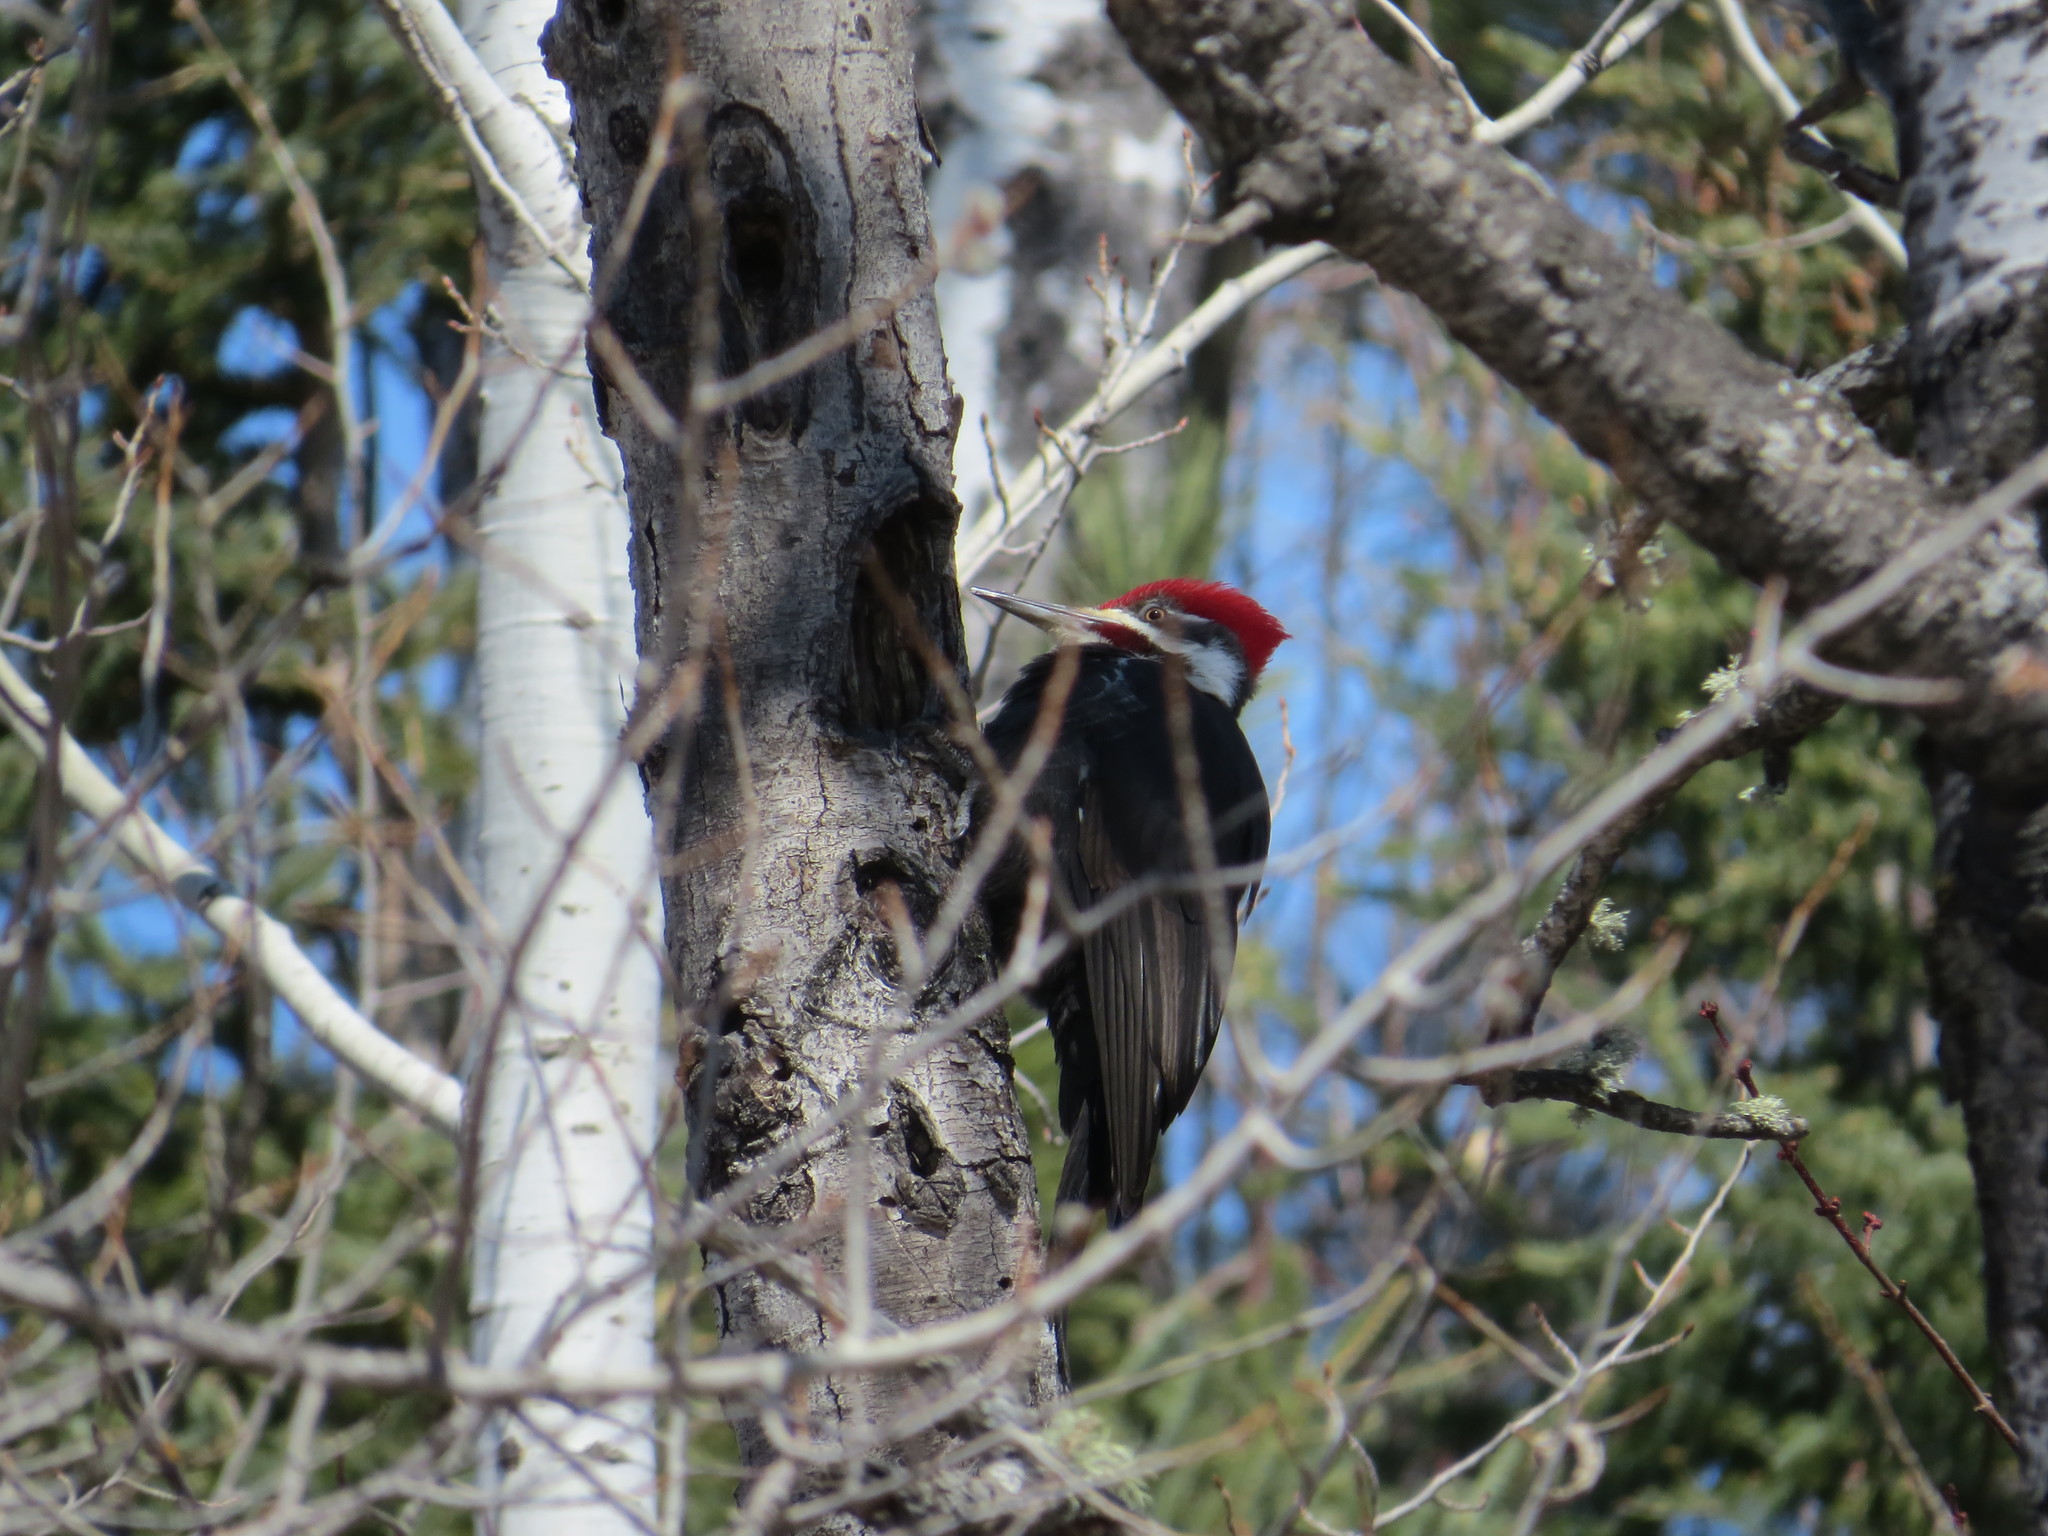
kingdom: Animalia
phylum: Chordata
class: Aves
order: Piciformes
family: Picidae
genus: Dryocopus
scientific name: Dryocopus pileatus
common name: Pileated woodpecker
